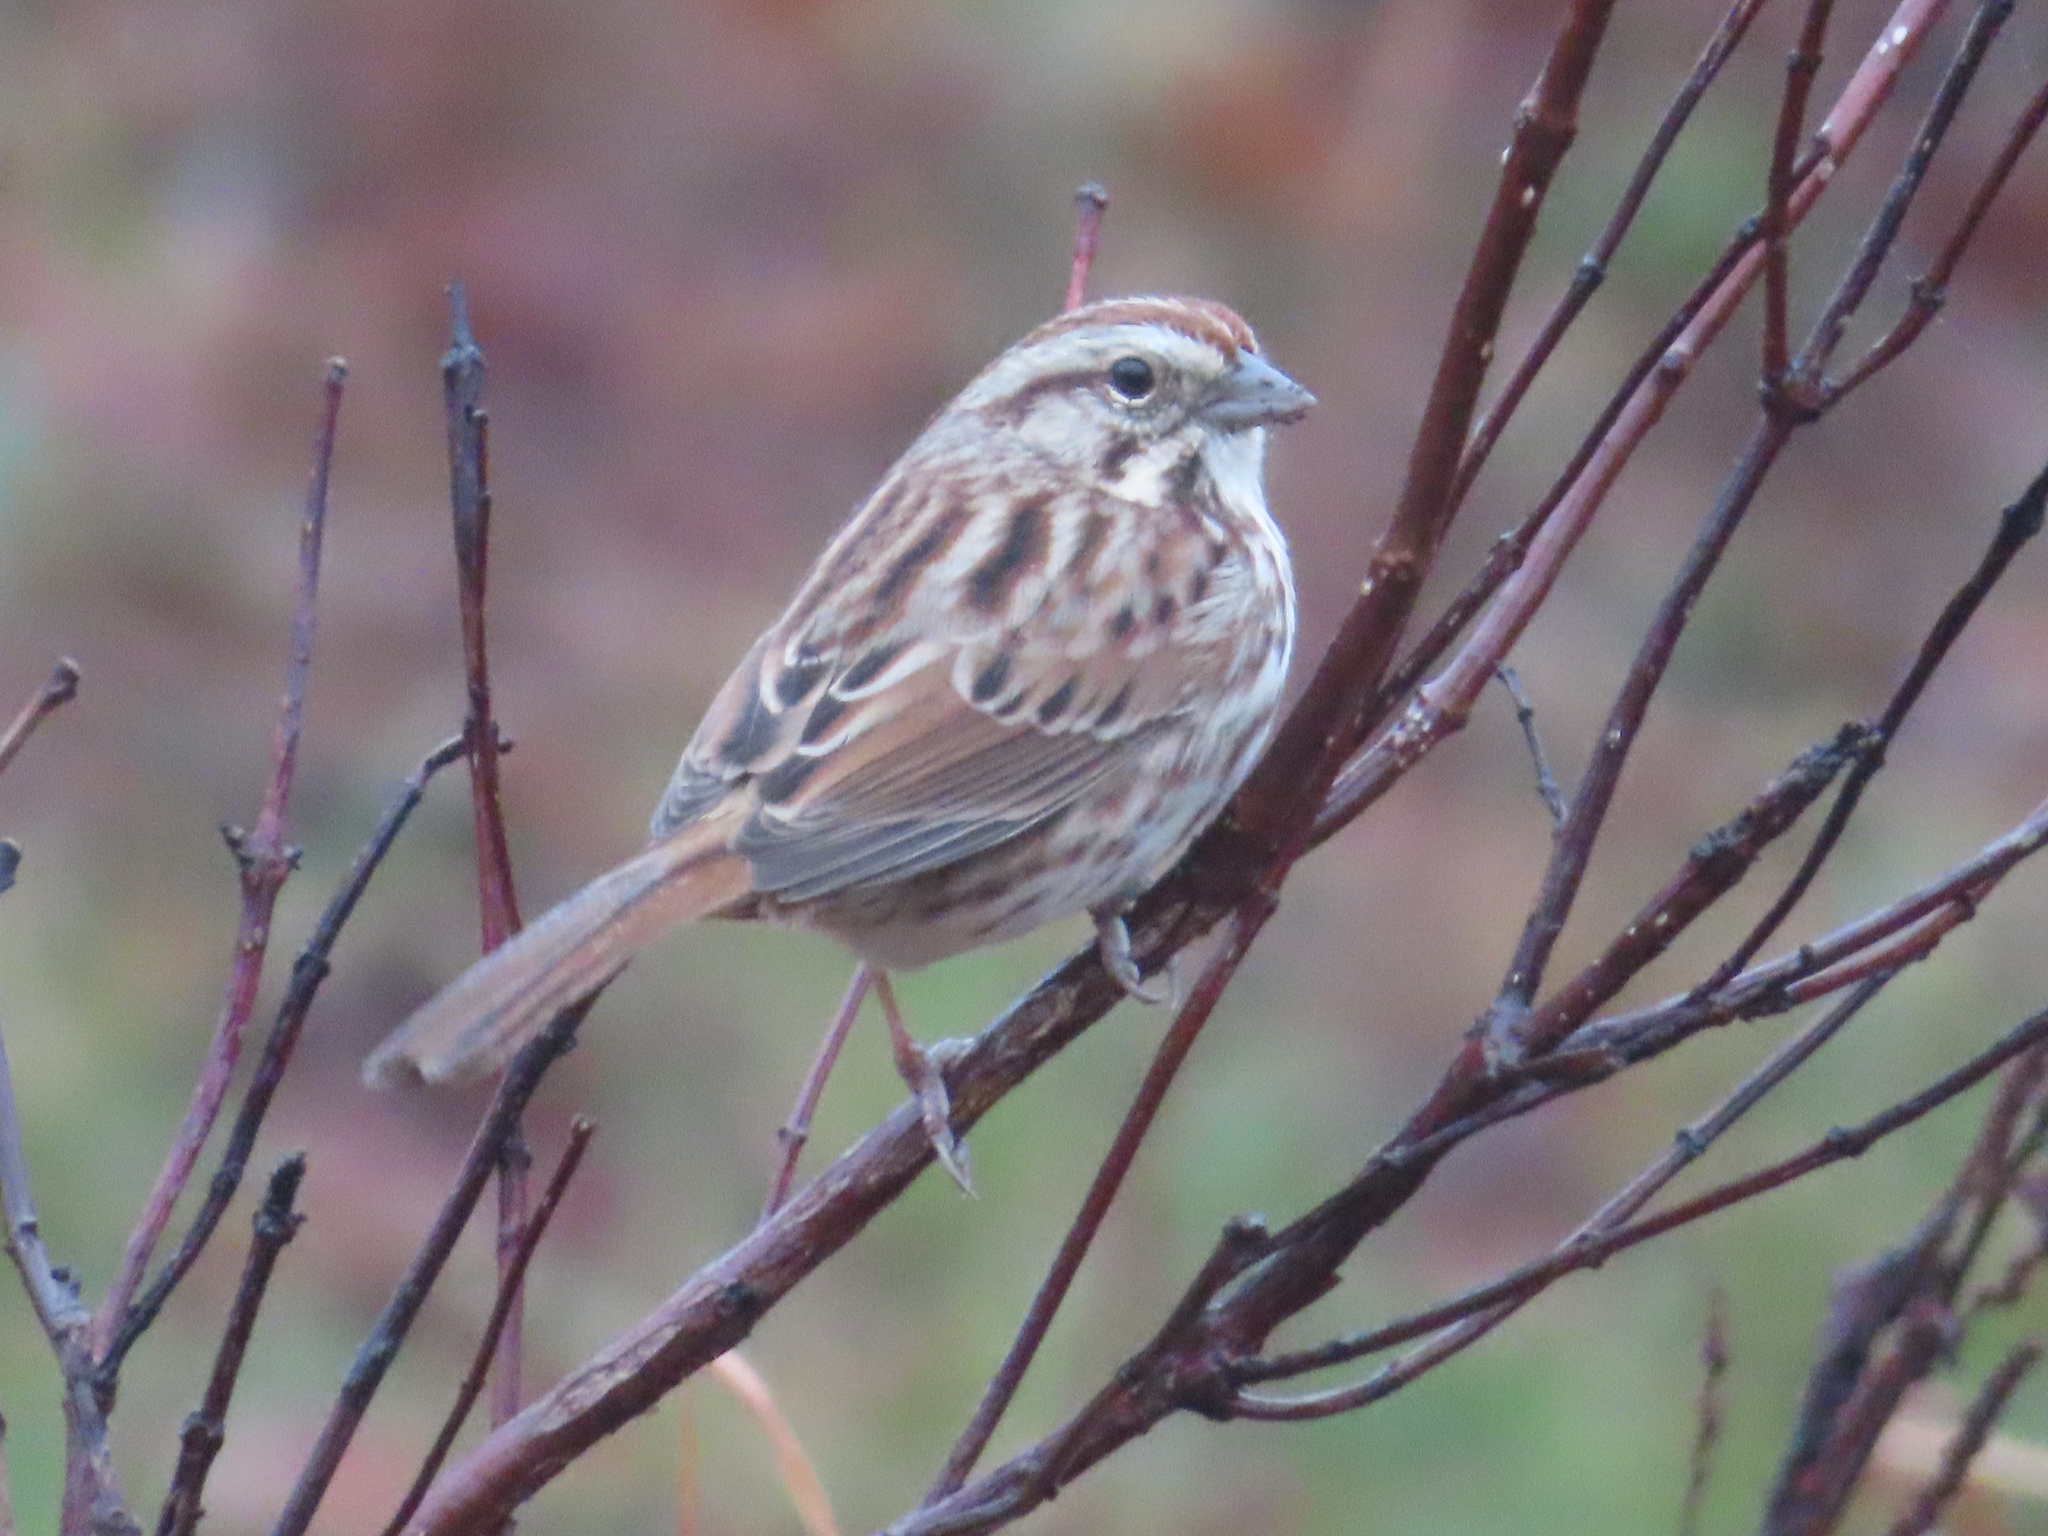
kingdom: Animalia
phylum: Chordata
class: Aves
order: Passeriformes
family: Passerellidae
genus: Melospiza
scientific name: Melospiza melodia
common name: Song sparrow
